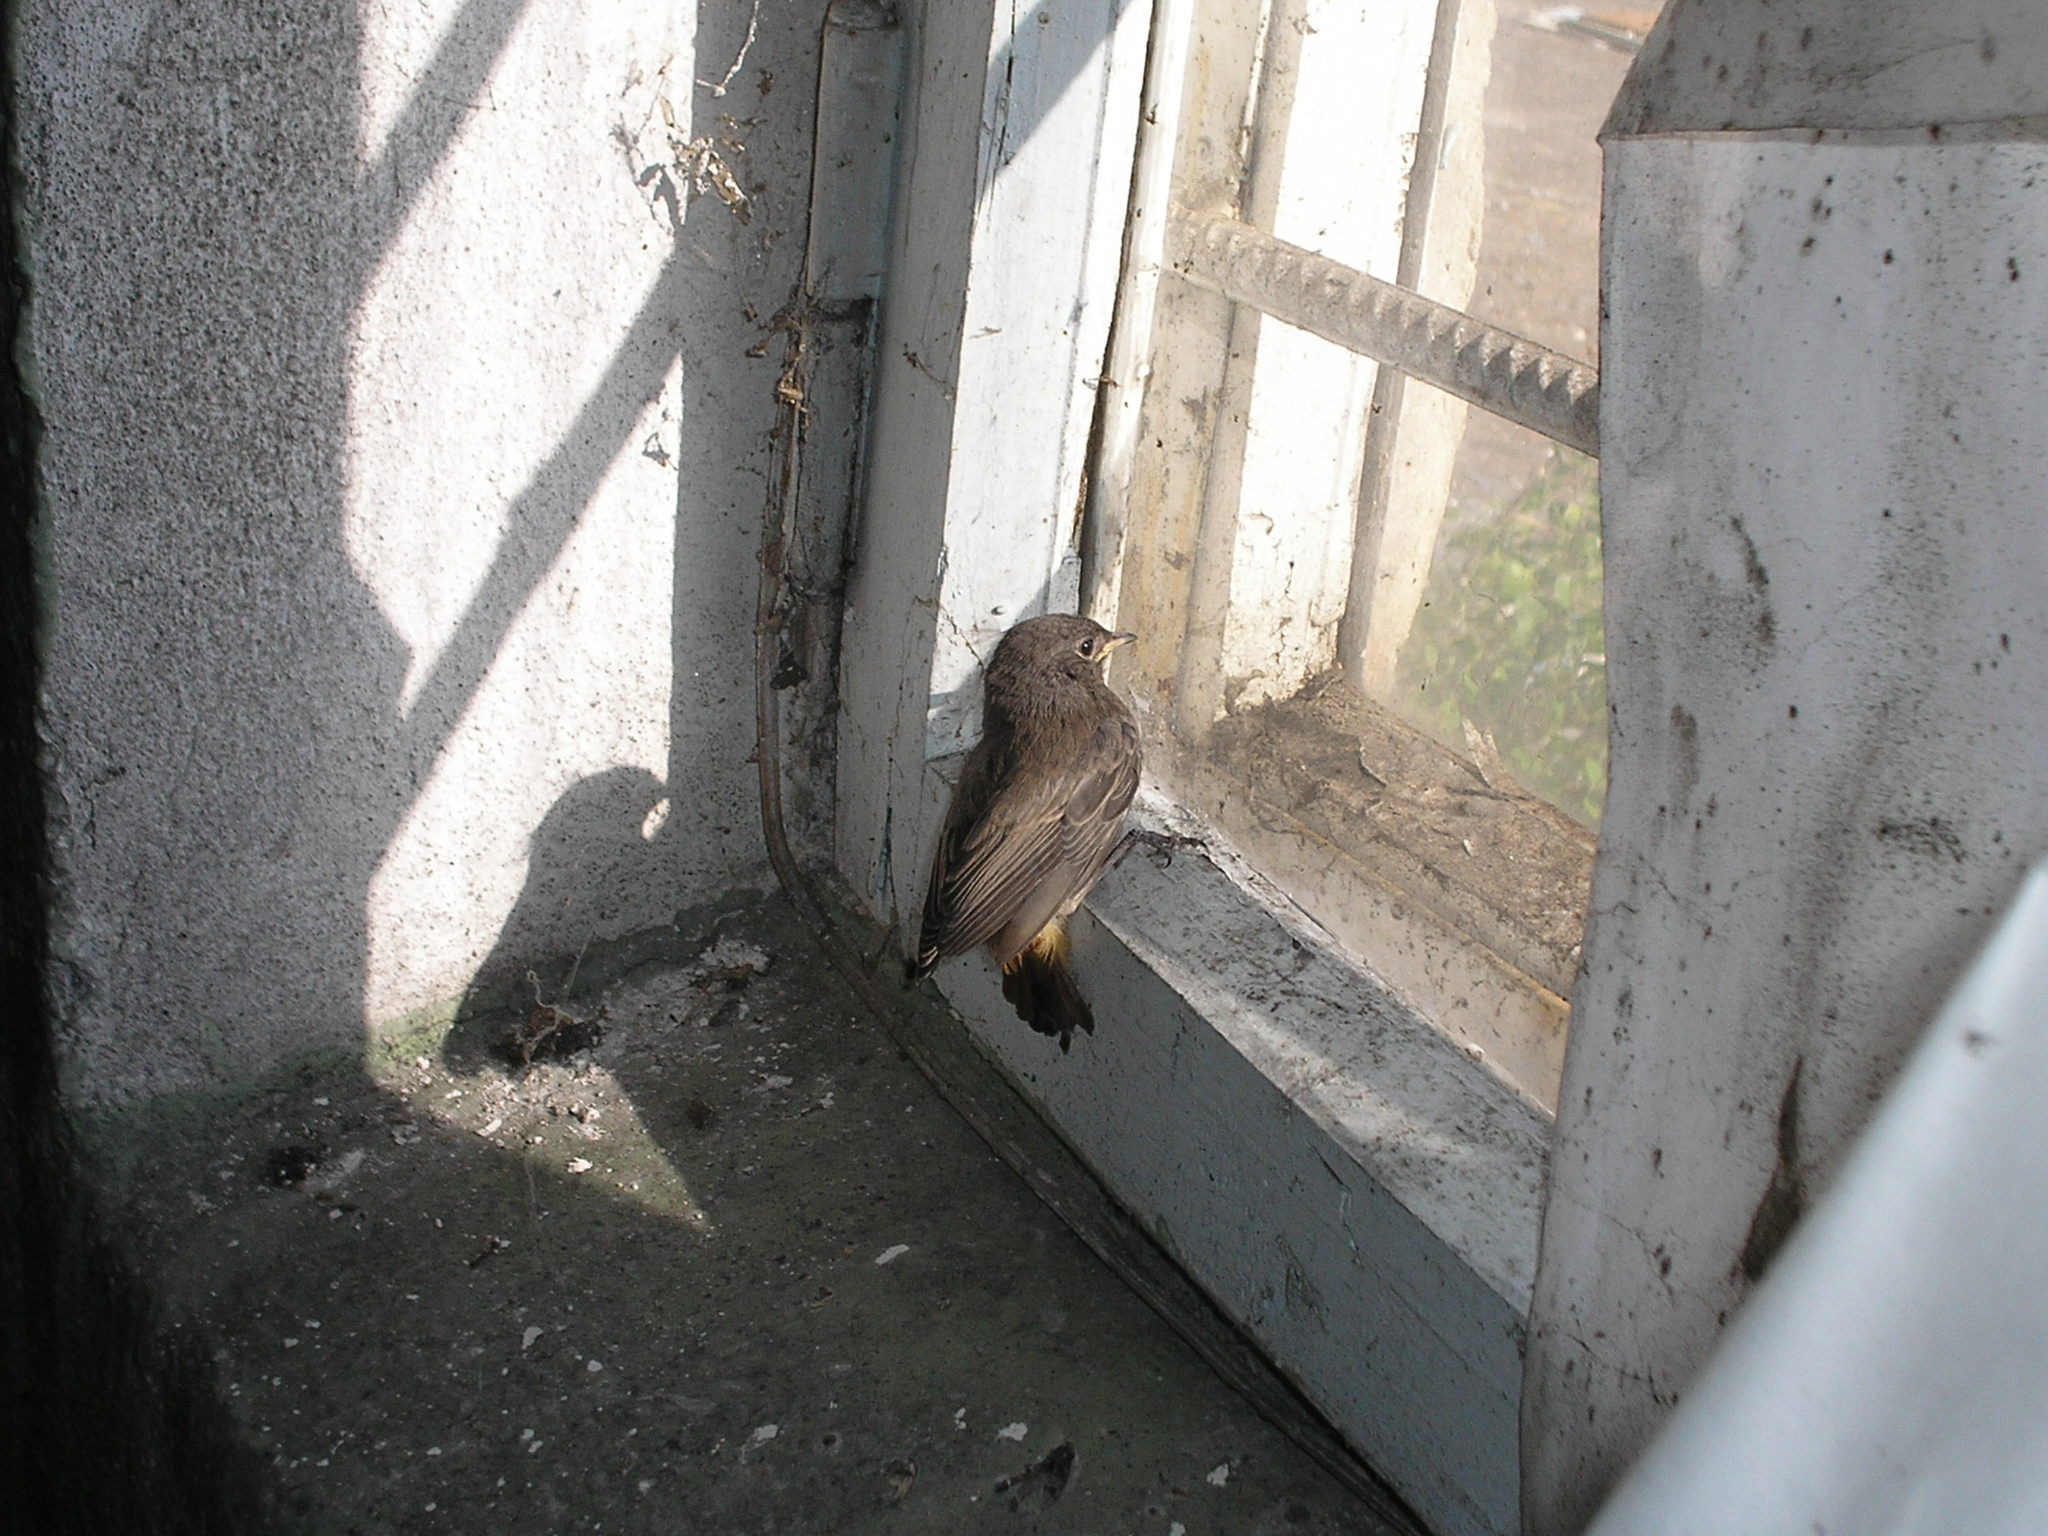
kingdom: Animalia
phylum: Chordata
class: Aves
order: Passeriformes
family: Muscicapidae
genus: Phoenicurus
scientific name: Phoenicurus ochruros
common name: Black redstart
